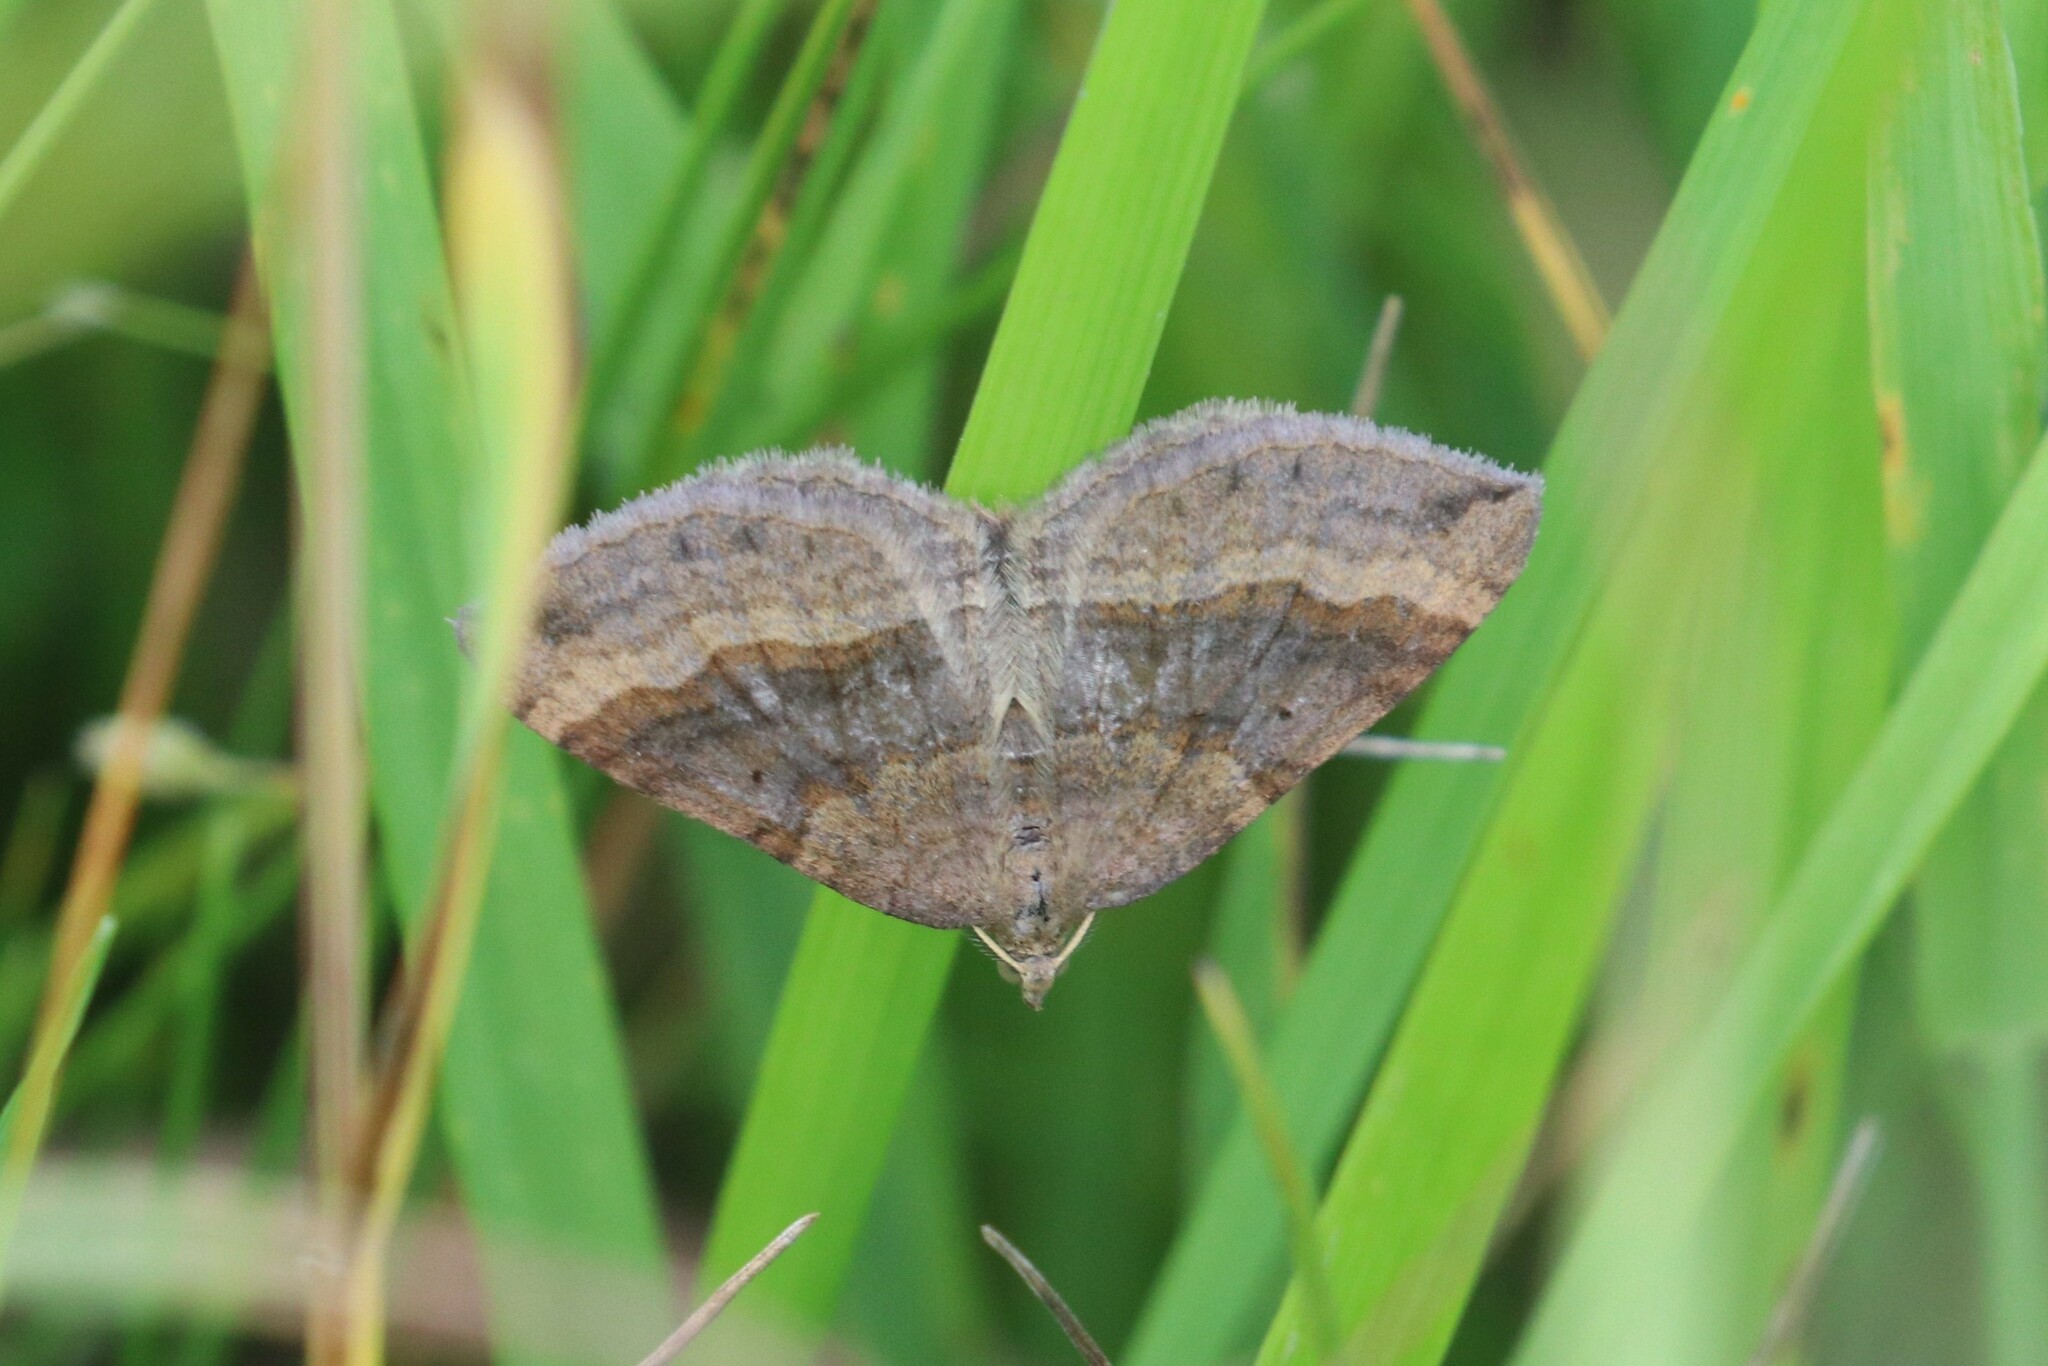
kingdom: Animalia
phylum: Arthropoda
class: Insecta
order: Lepidoptera
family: Geometridae
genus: Scotopteryx
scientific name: Scotopteryx chenopodiata
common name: Shaded broad-bar
